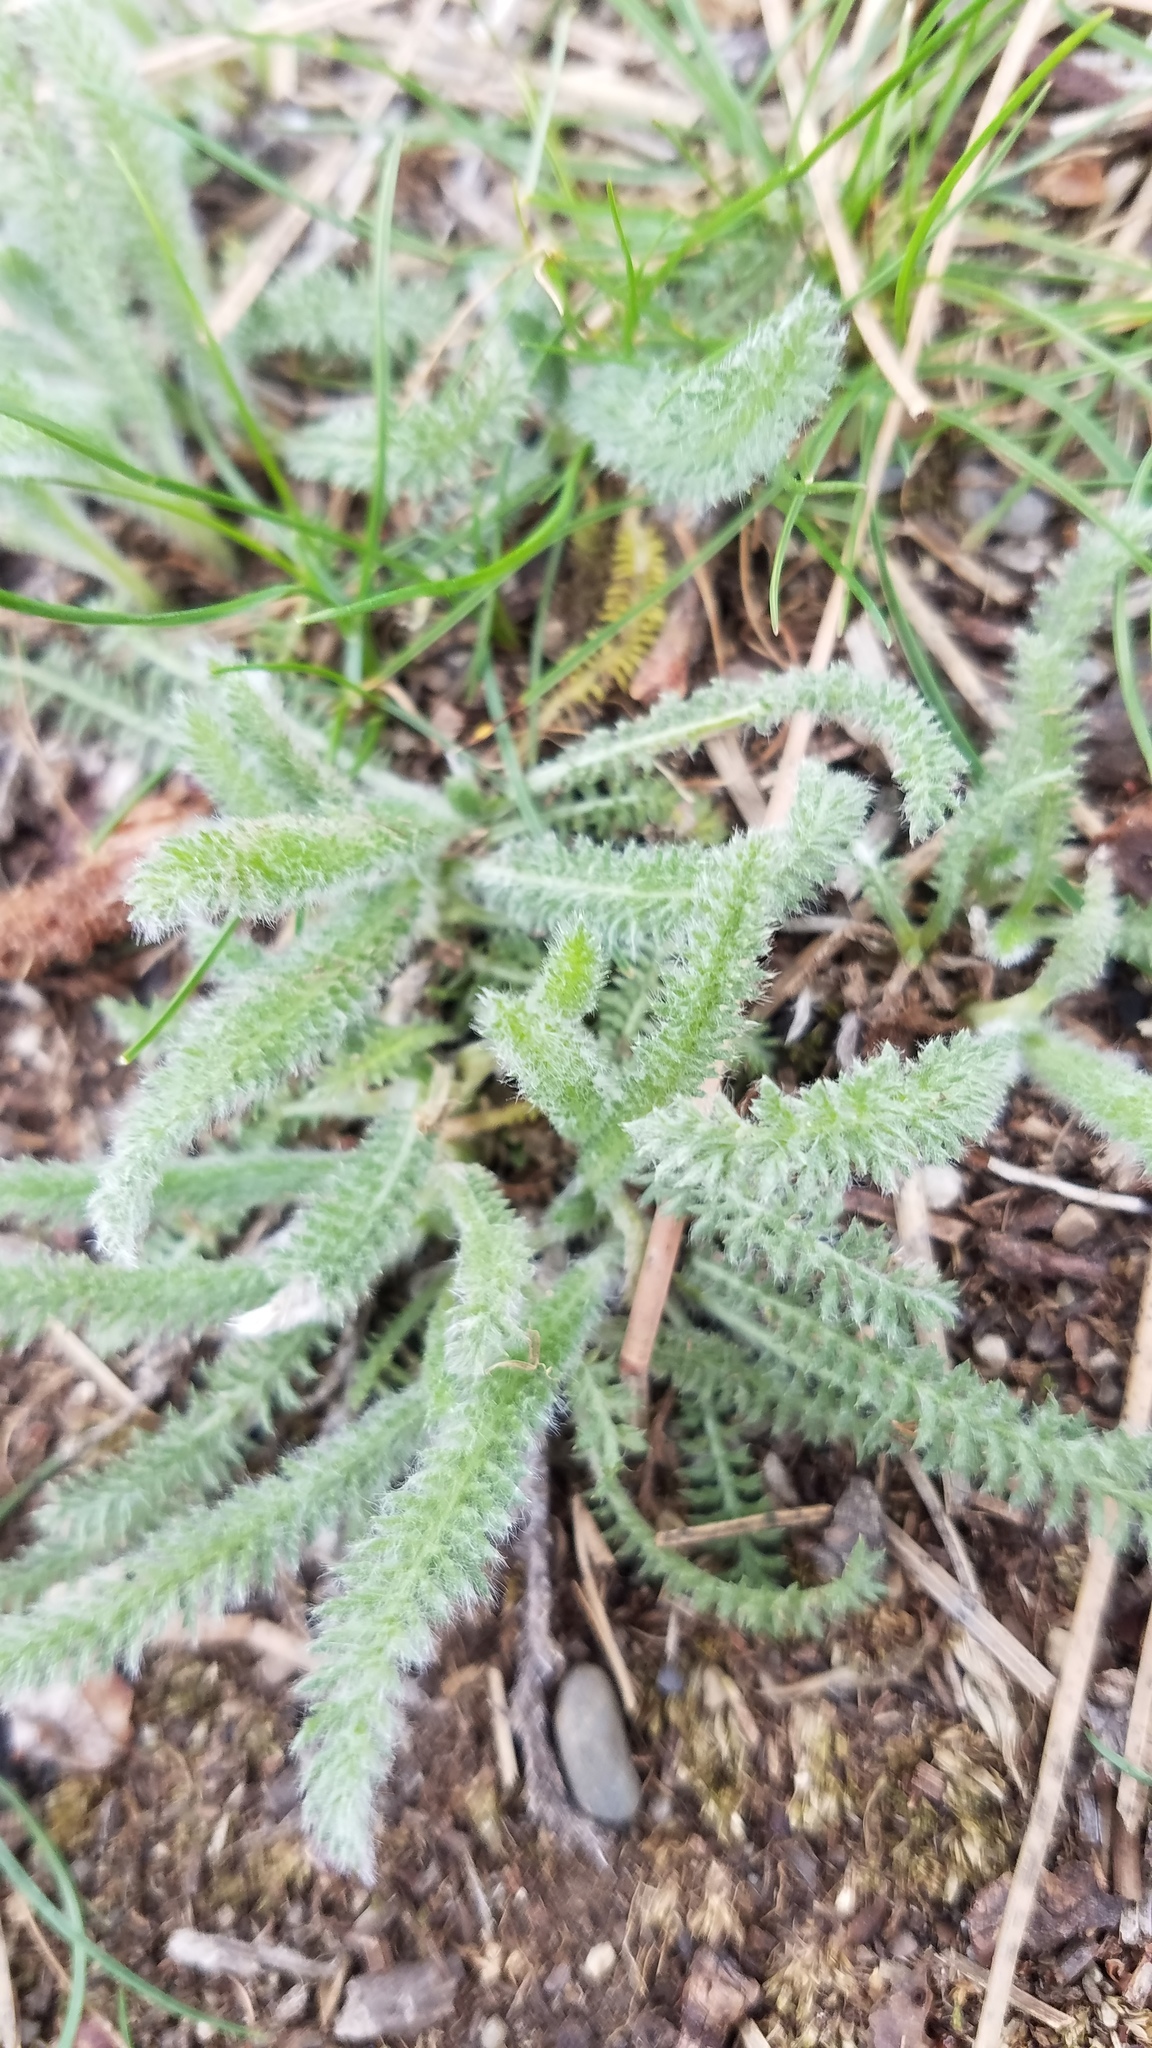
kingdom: Plantae
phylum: Tracheophyta
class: Magnoliopsida
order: Asterales
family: Asteraceae
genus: Achillea
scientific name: Achillea millefolium
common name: Yarrow
